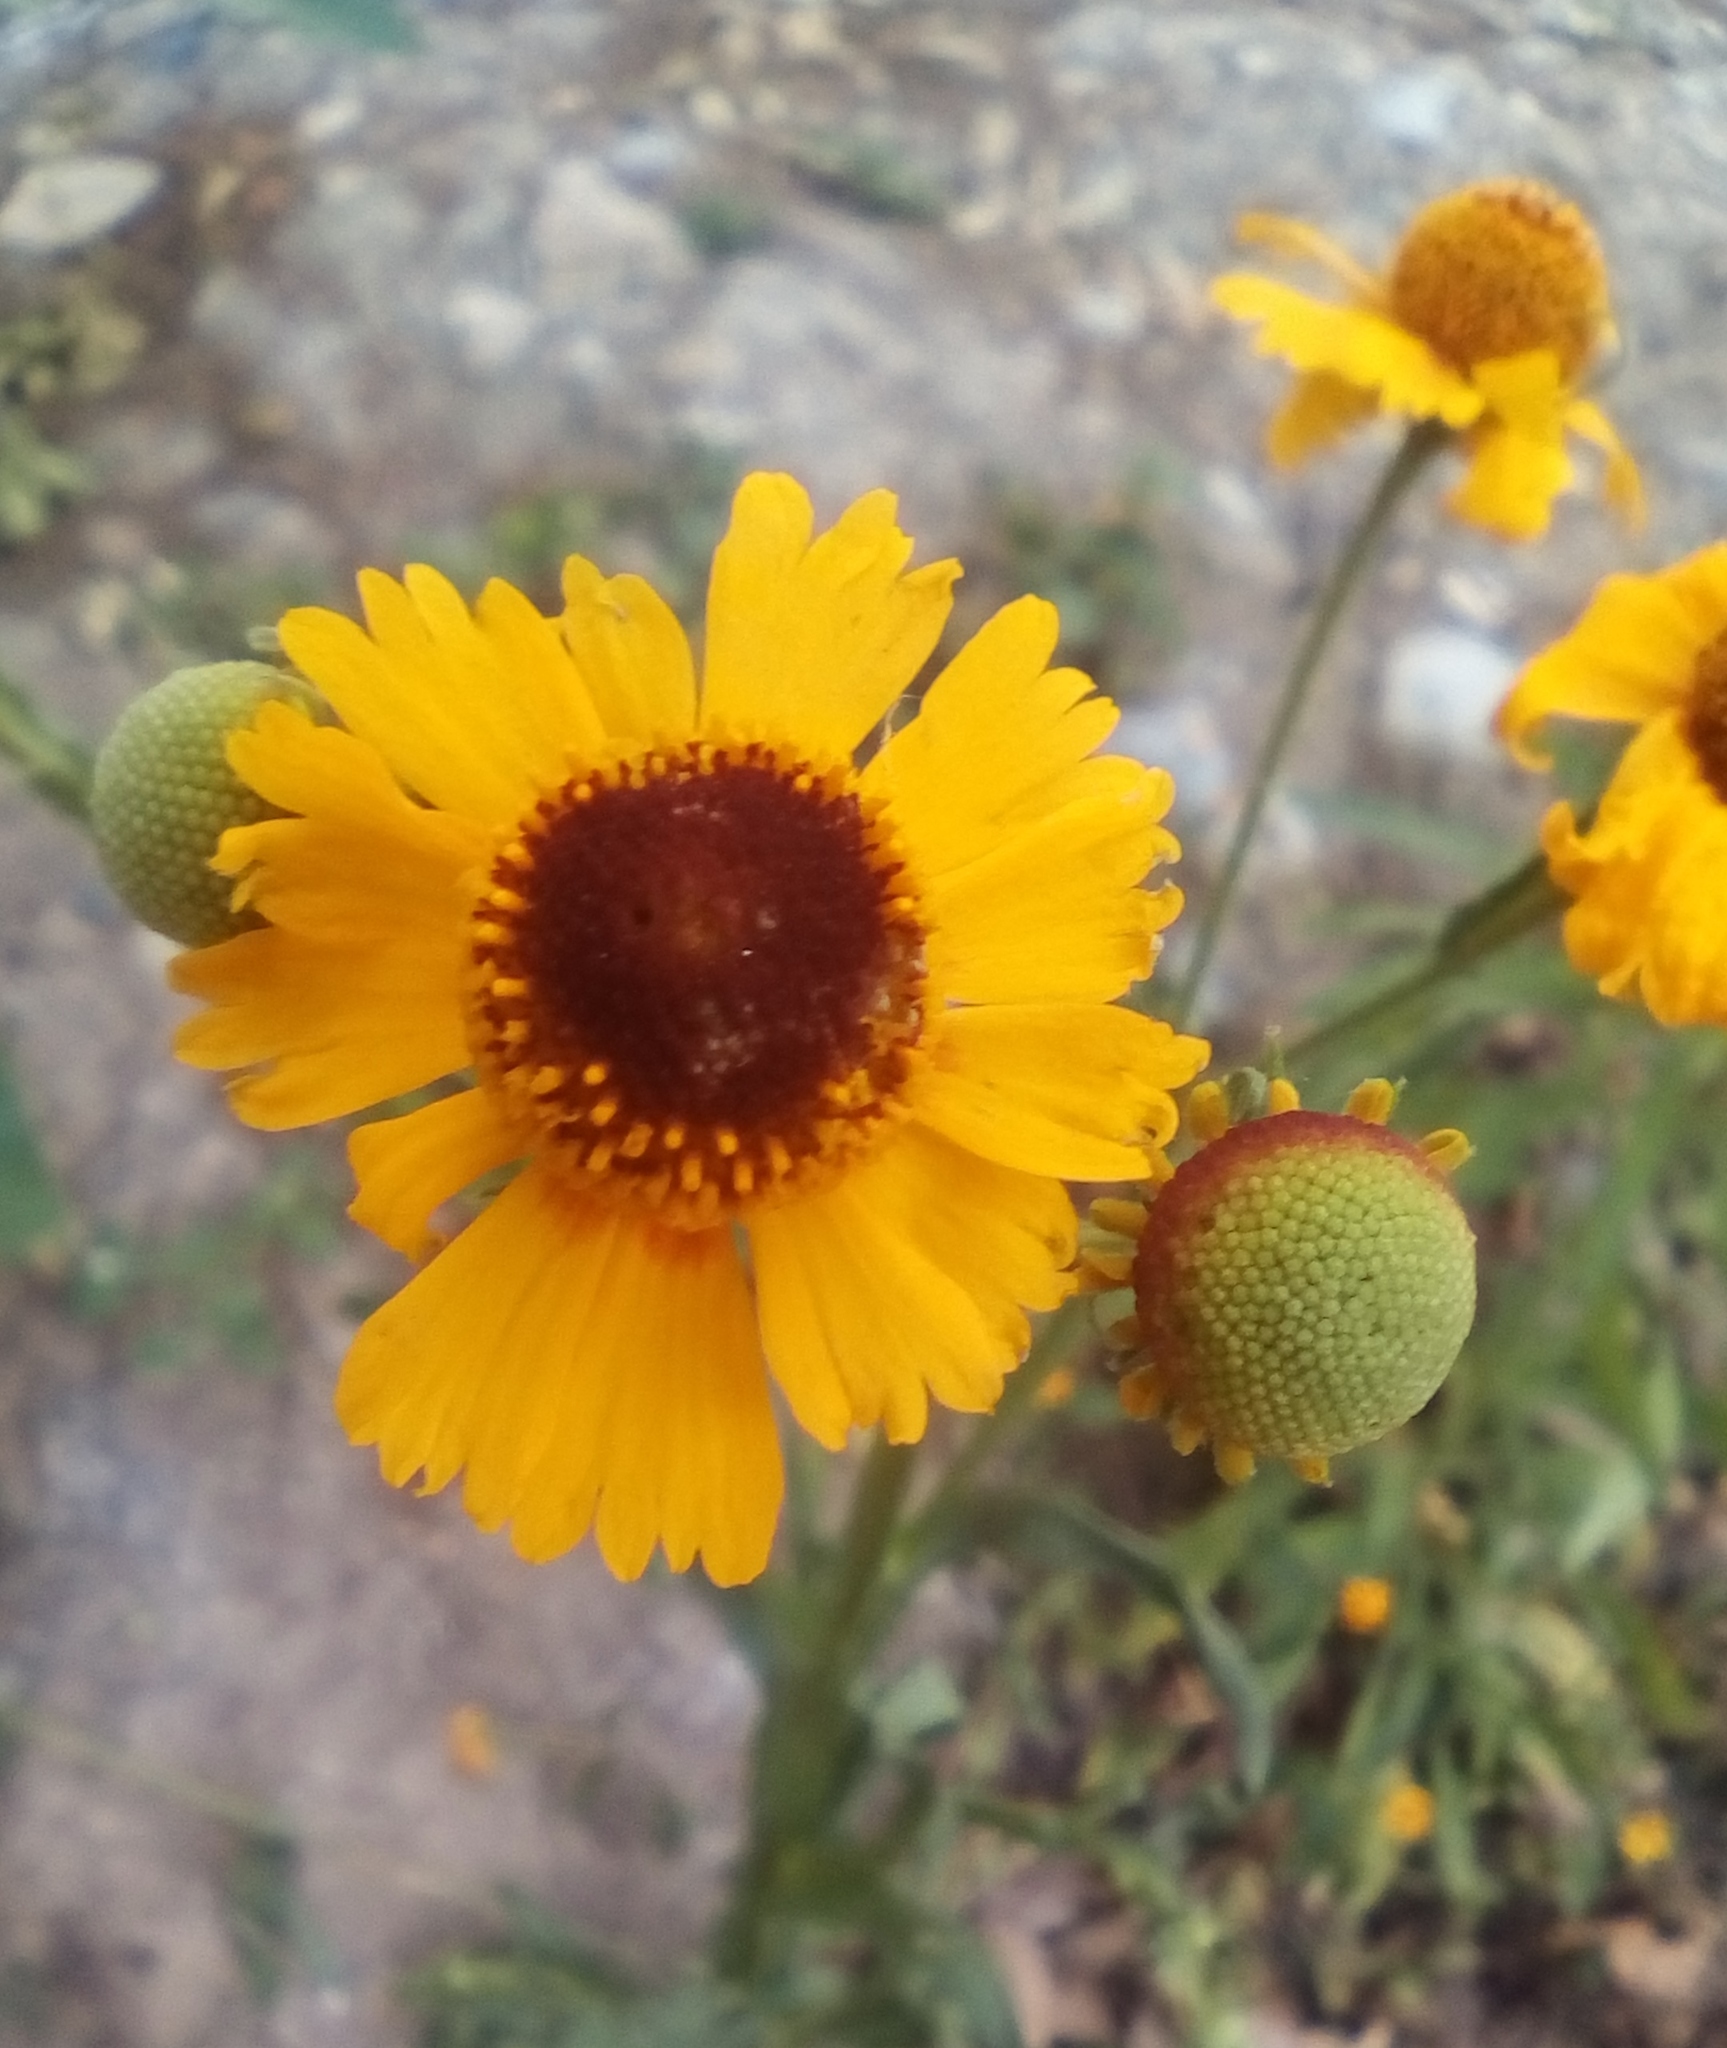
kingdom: Plantae
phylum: Tracheophyta
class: Magnoliopsida
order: Asterales
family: Asteraceae
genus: Helenium
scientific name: Helenium amphibolum
